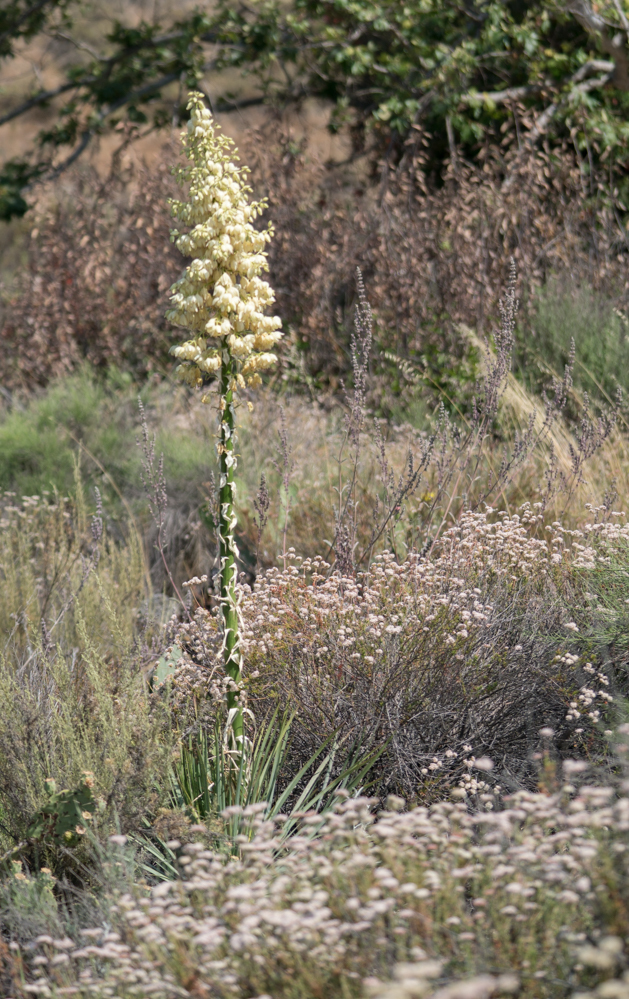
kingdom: Plantae
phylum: Tracheophyta
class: Liliopsida
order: Asparagales
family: Asparagaceae
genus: Hesperoyucca
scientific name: Hesperoyucca whipplei
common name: Our lord's-candle
